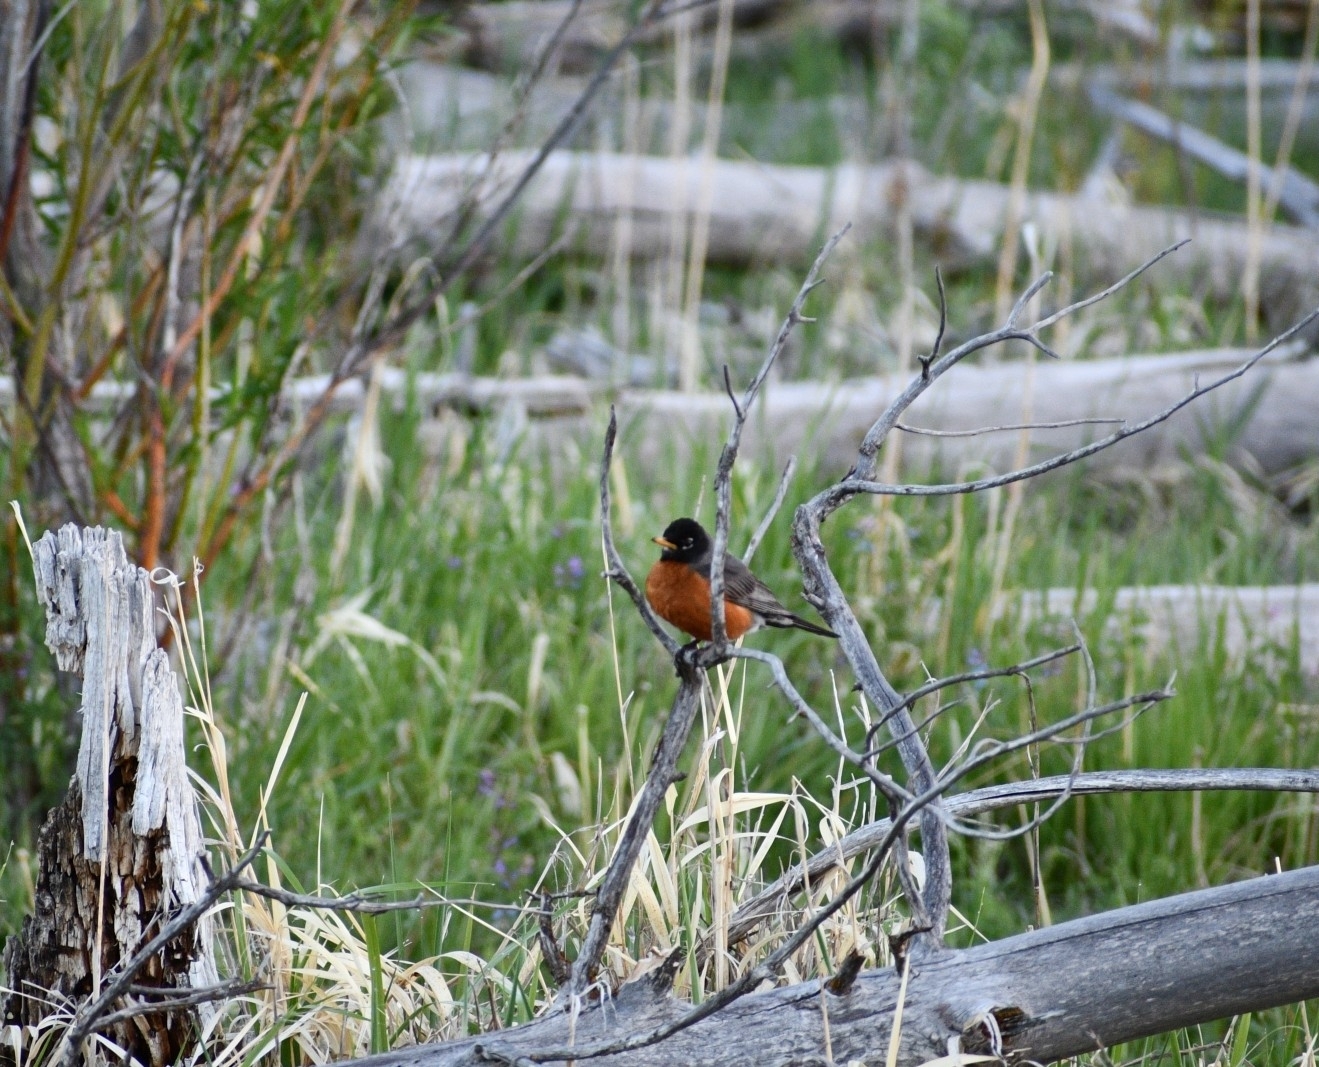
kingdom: Animalia
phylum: Chordata
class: Aves
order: Passeriformes
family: Turdidae
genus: Turdus
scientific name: Turdus migratorius
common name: American robin
